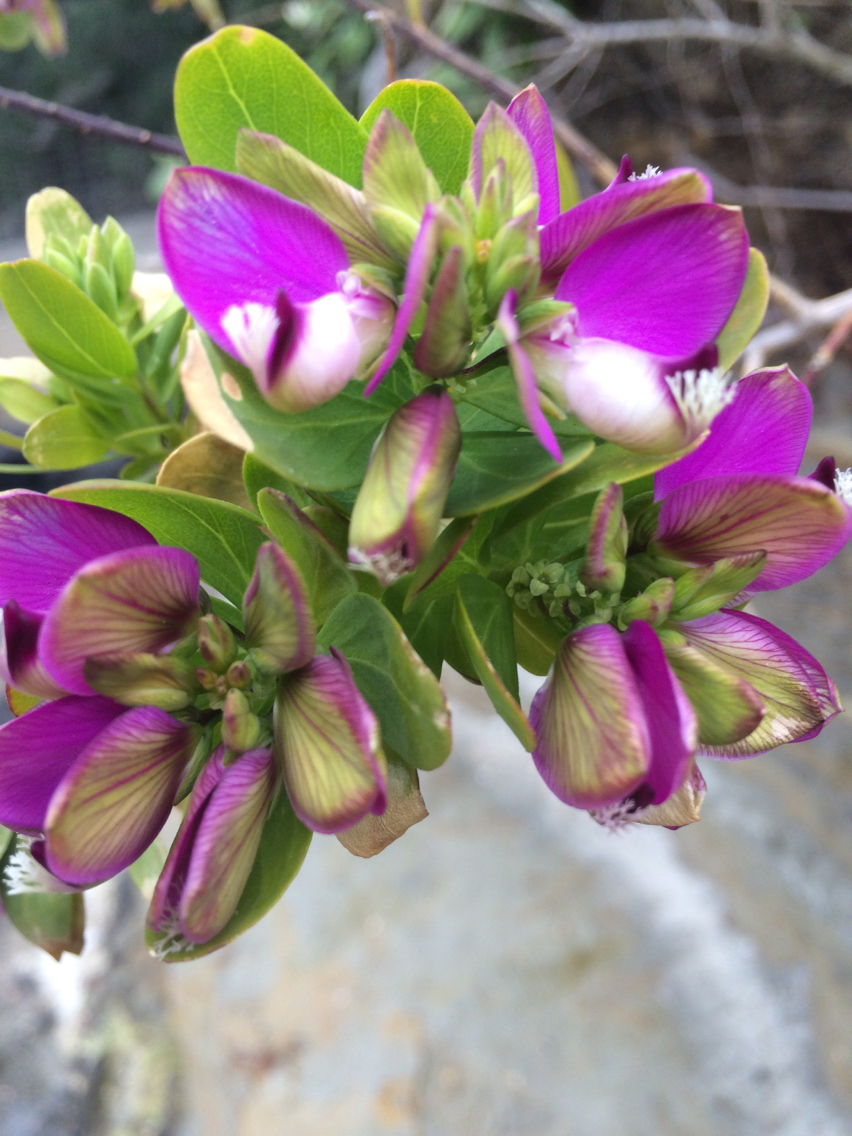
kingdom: Plantae
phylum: Tracheophyta
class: Magnoliopsida
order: Fabales
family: Polygalaceae
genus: Polygala
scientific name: Polygala myrtifolia
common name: Myrtle-leaf milkwort
